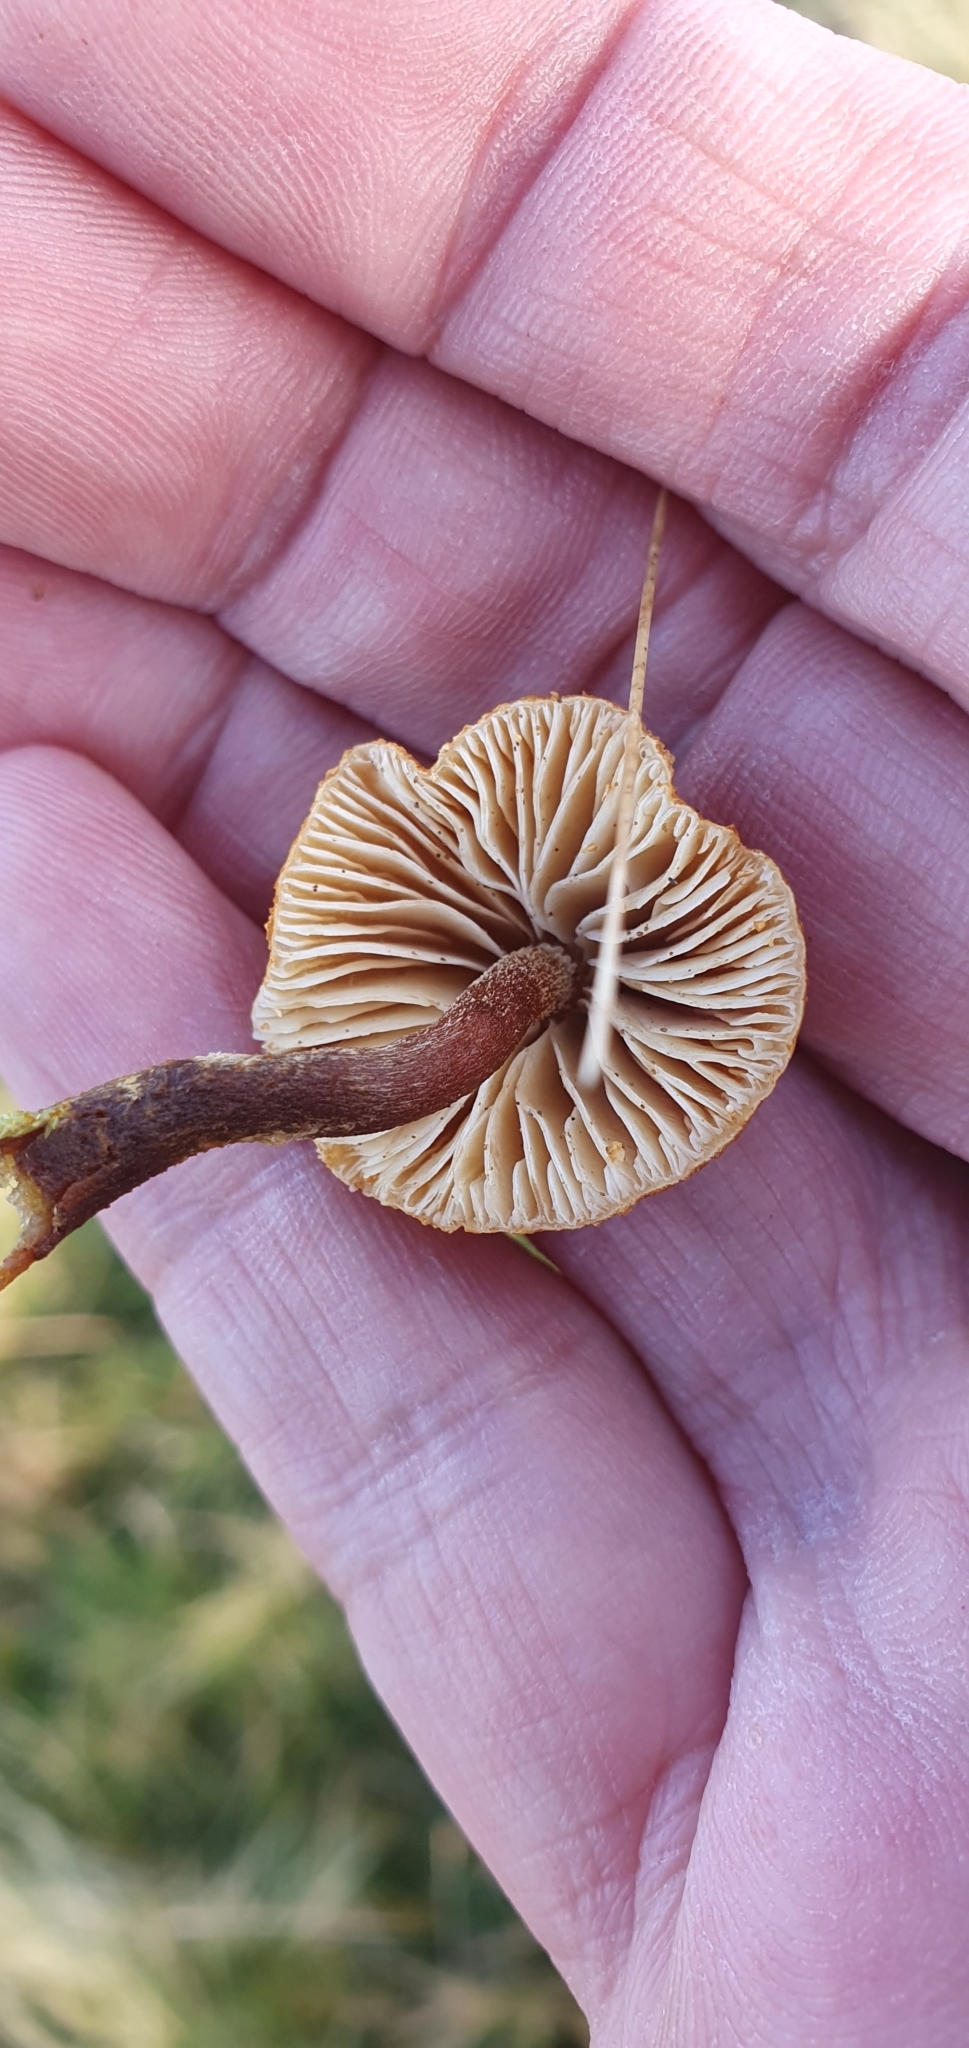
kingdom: Fungi
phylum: Basidiomycota
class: Agaricomycetes
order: Agaricales
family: Tricholomataceae
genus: Cystoderma
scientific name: Cystoderma amianthinum
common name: Earthy powdercap
